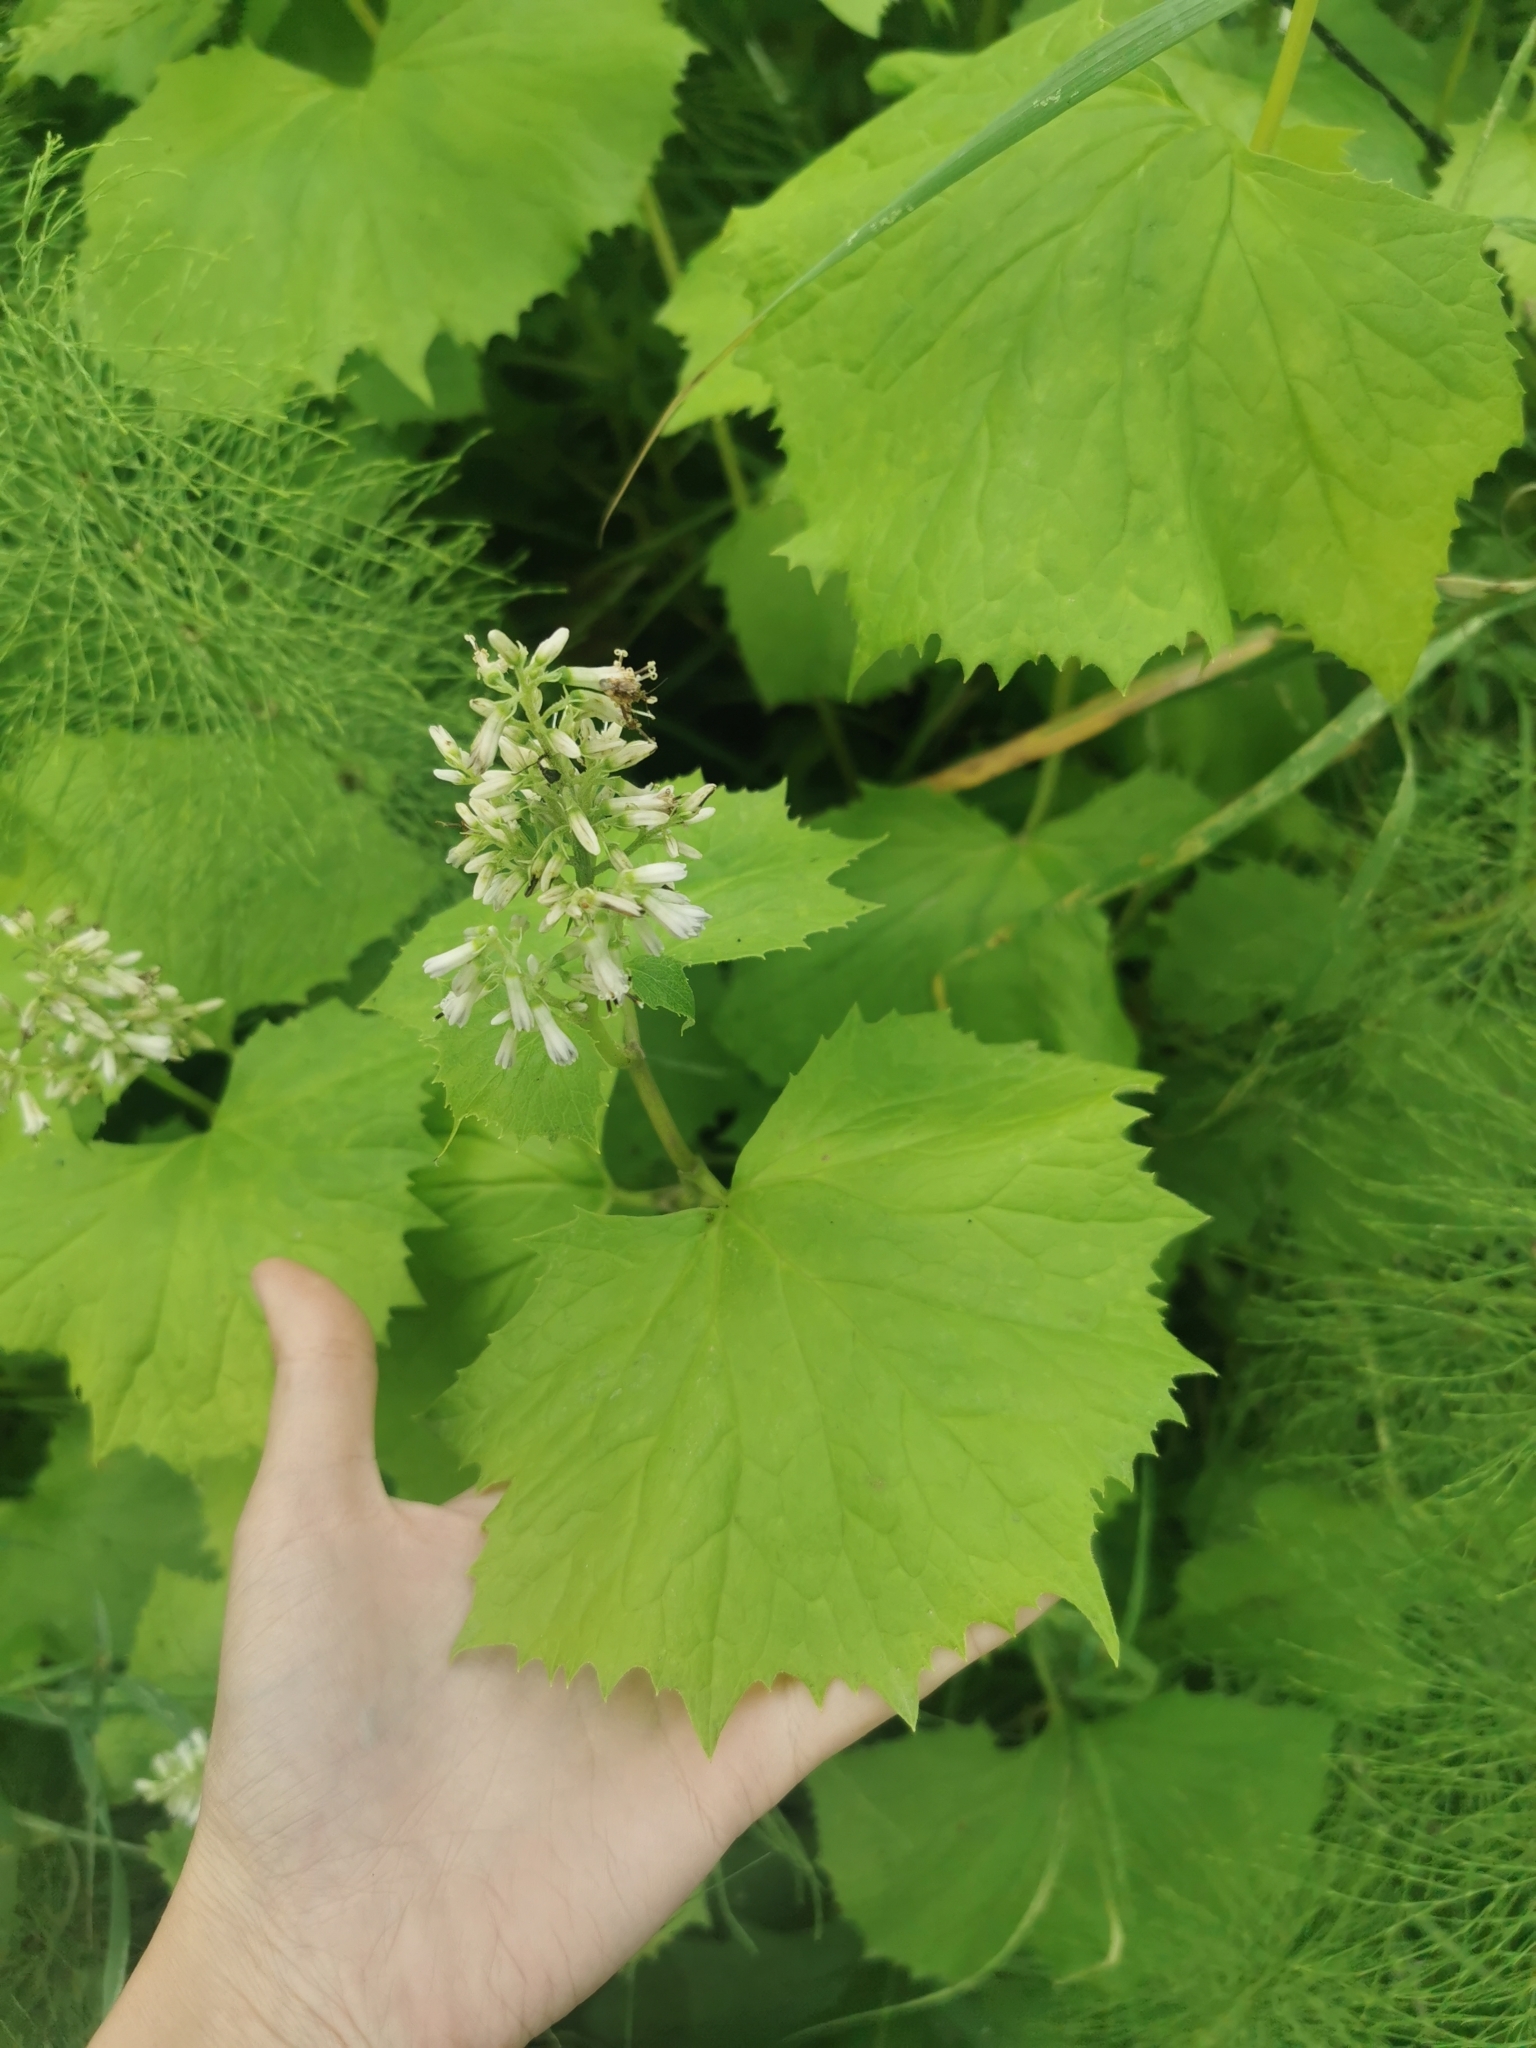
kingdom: Plantae
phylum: Tracheophyta
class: Magnoliopsida
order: Asterales
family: Asteraceae
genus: Parasenecio
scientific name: Parasenecio kamtschaticus
